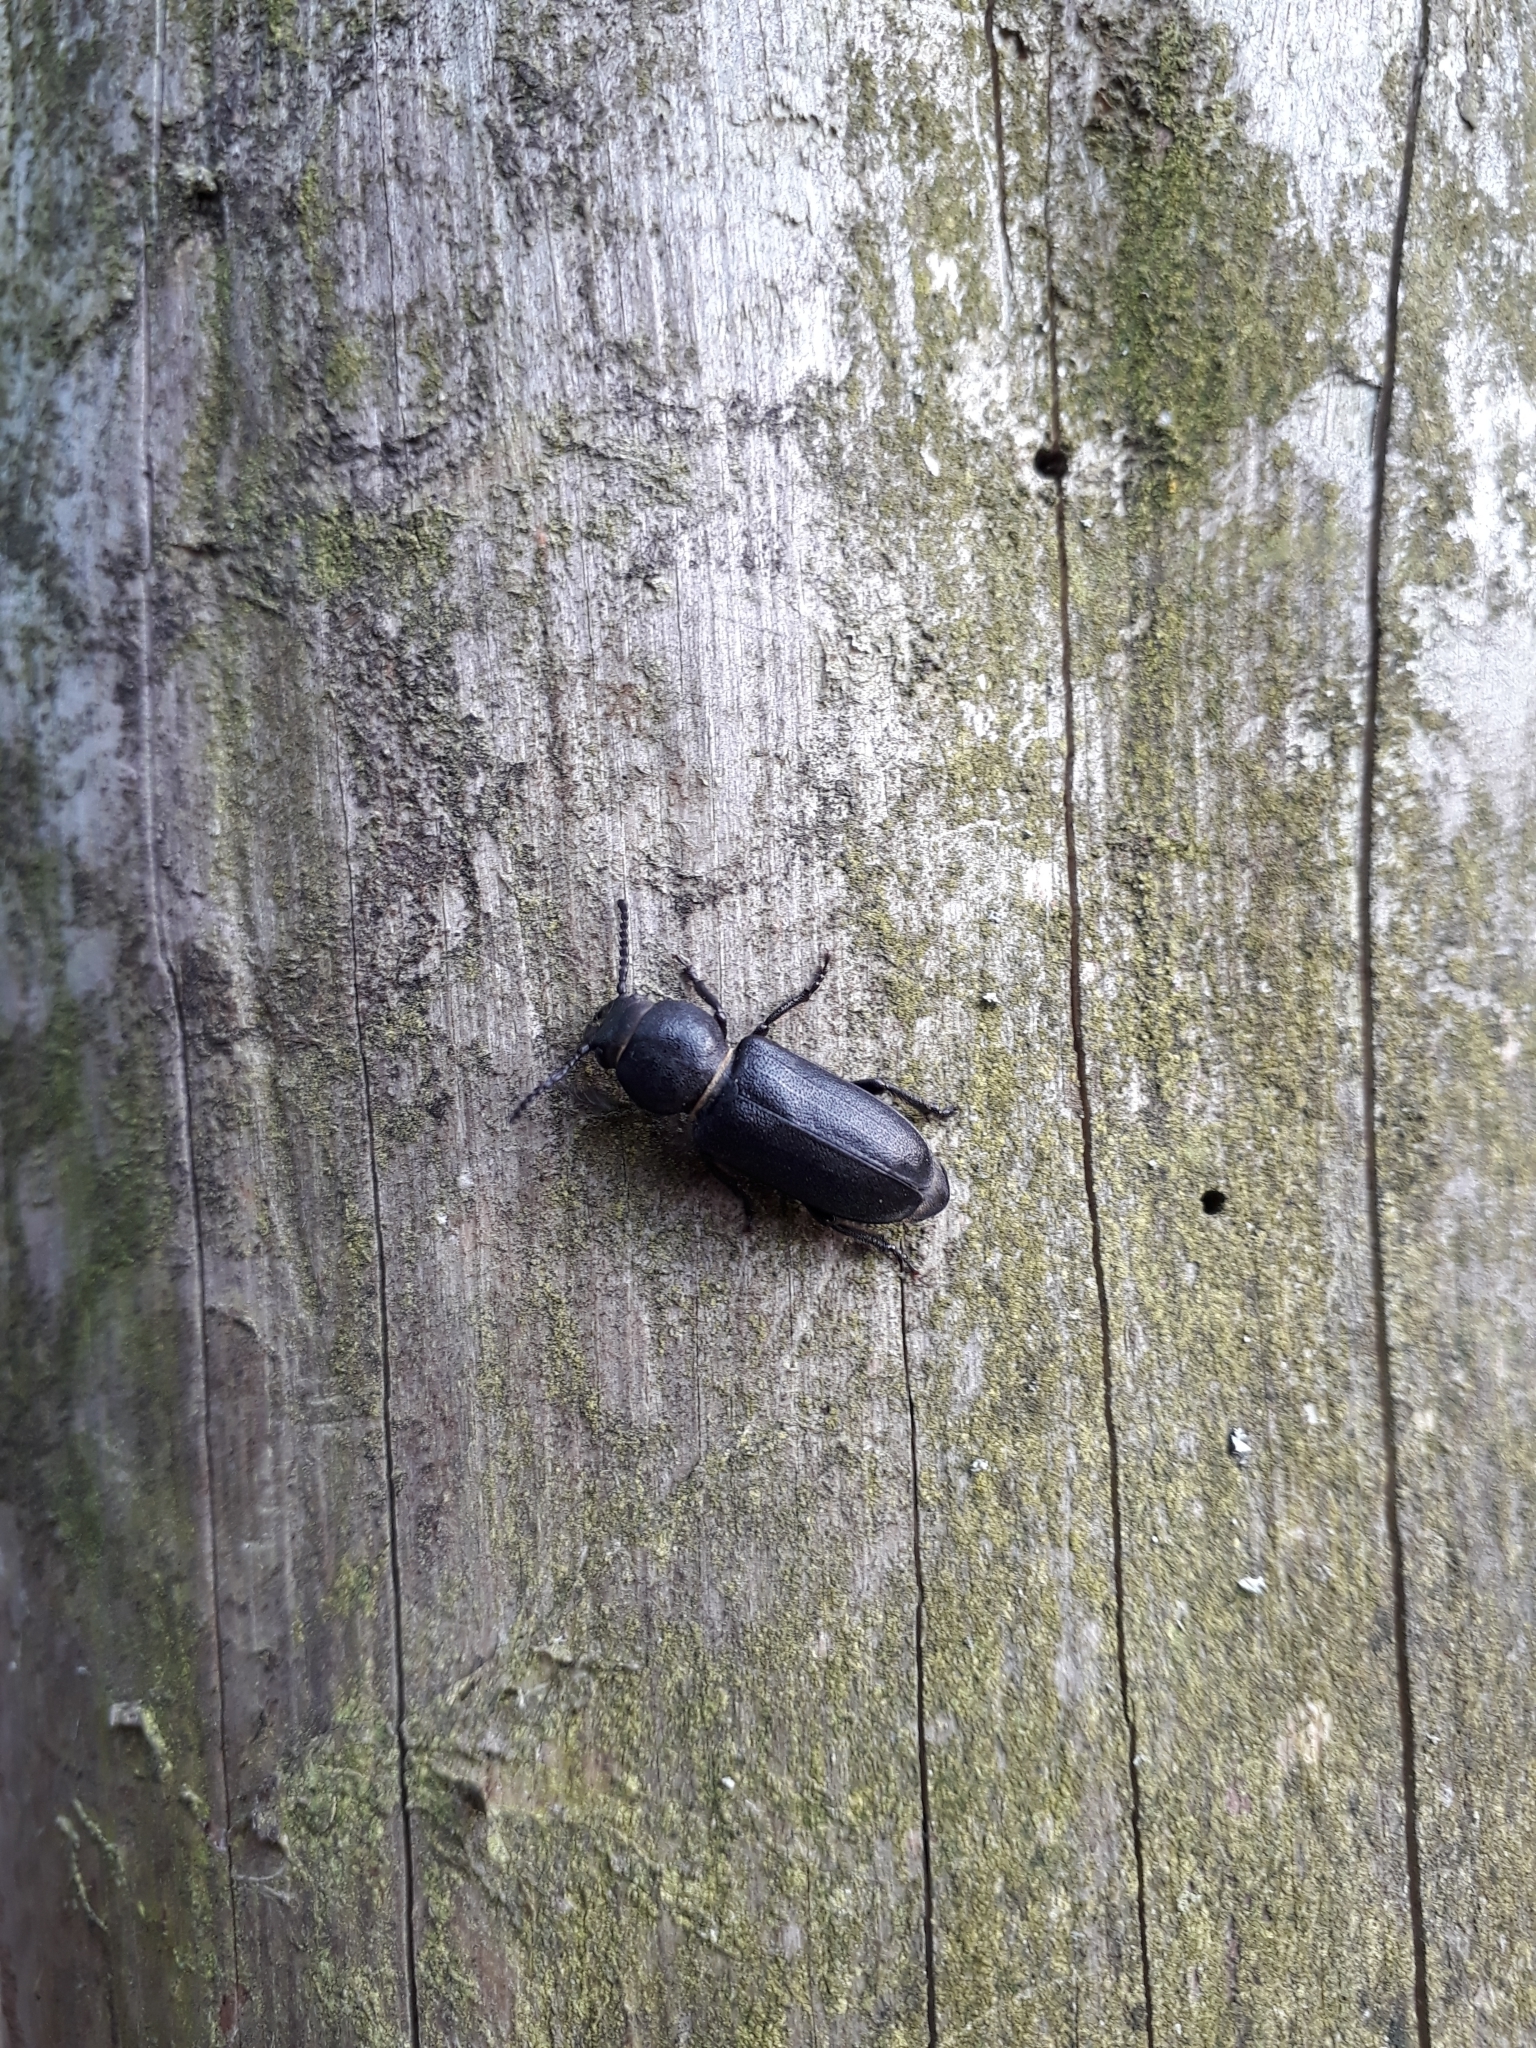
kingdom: Animalia
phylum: Arthropoda
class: Insecta
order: Coleoptera
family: Cerambycidae
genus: Spondylis
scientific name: Spondylis buprestoides
